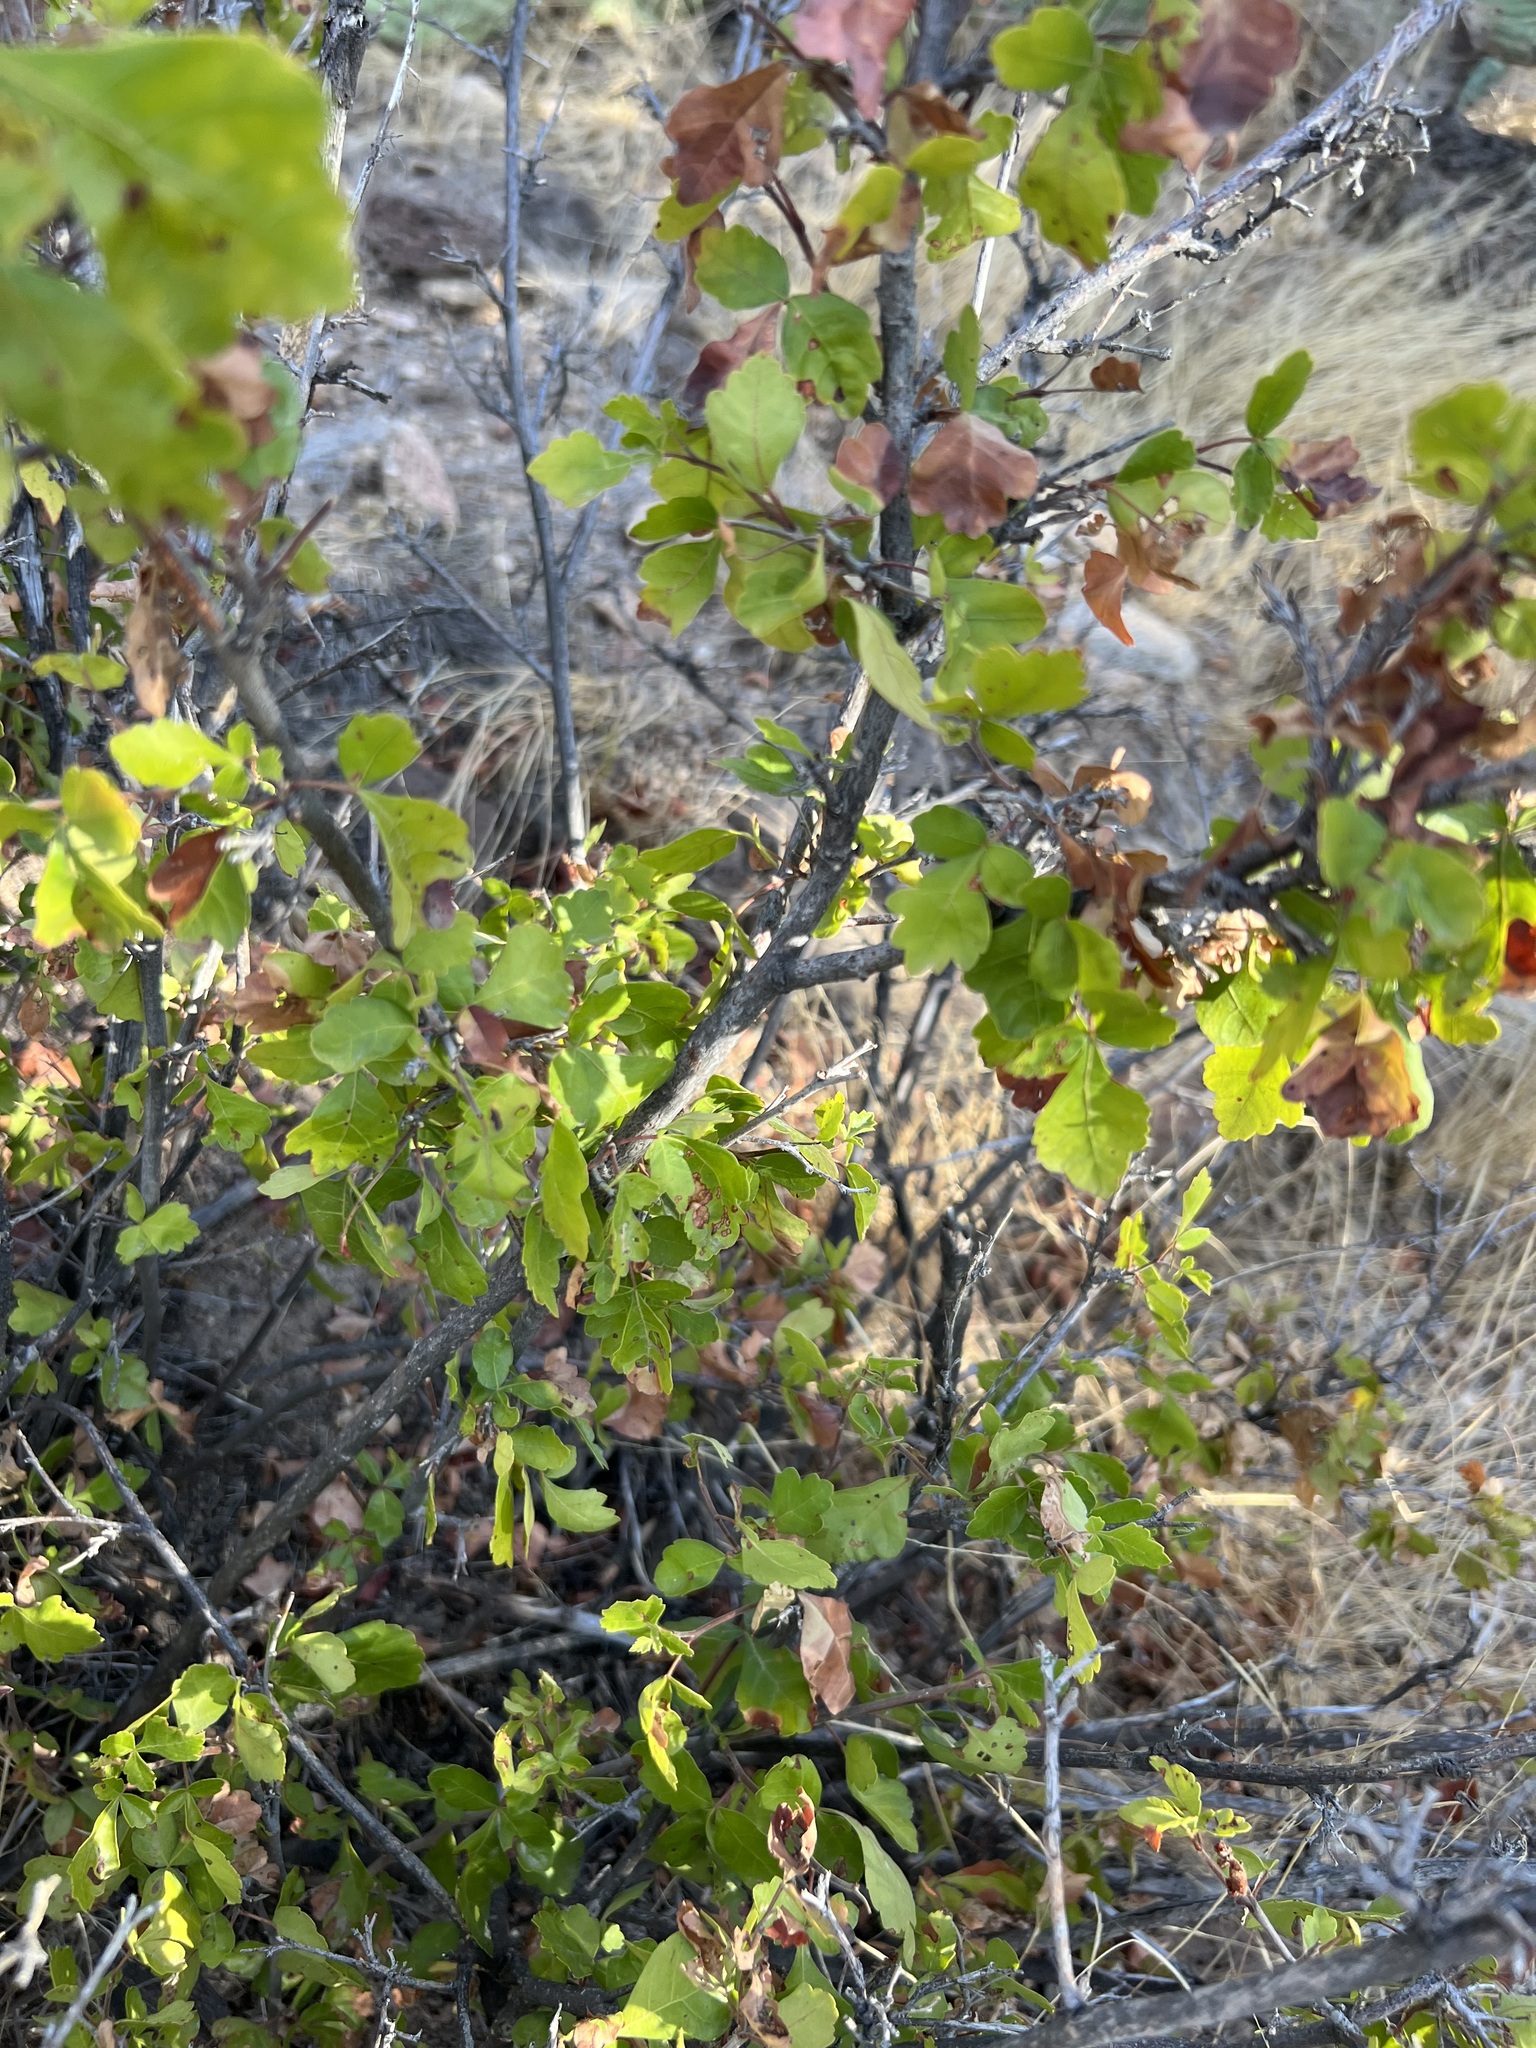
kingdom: Plantae
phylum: Tracheophyta
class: Magnoliopsida
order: Sapindales
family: Anacardiaceae
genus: Rhus
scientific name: Rhus aromatica
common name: Aromatic sumac
